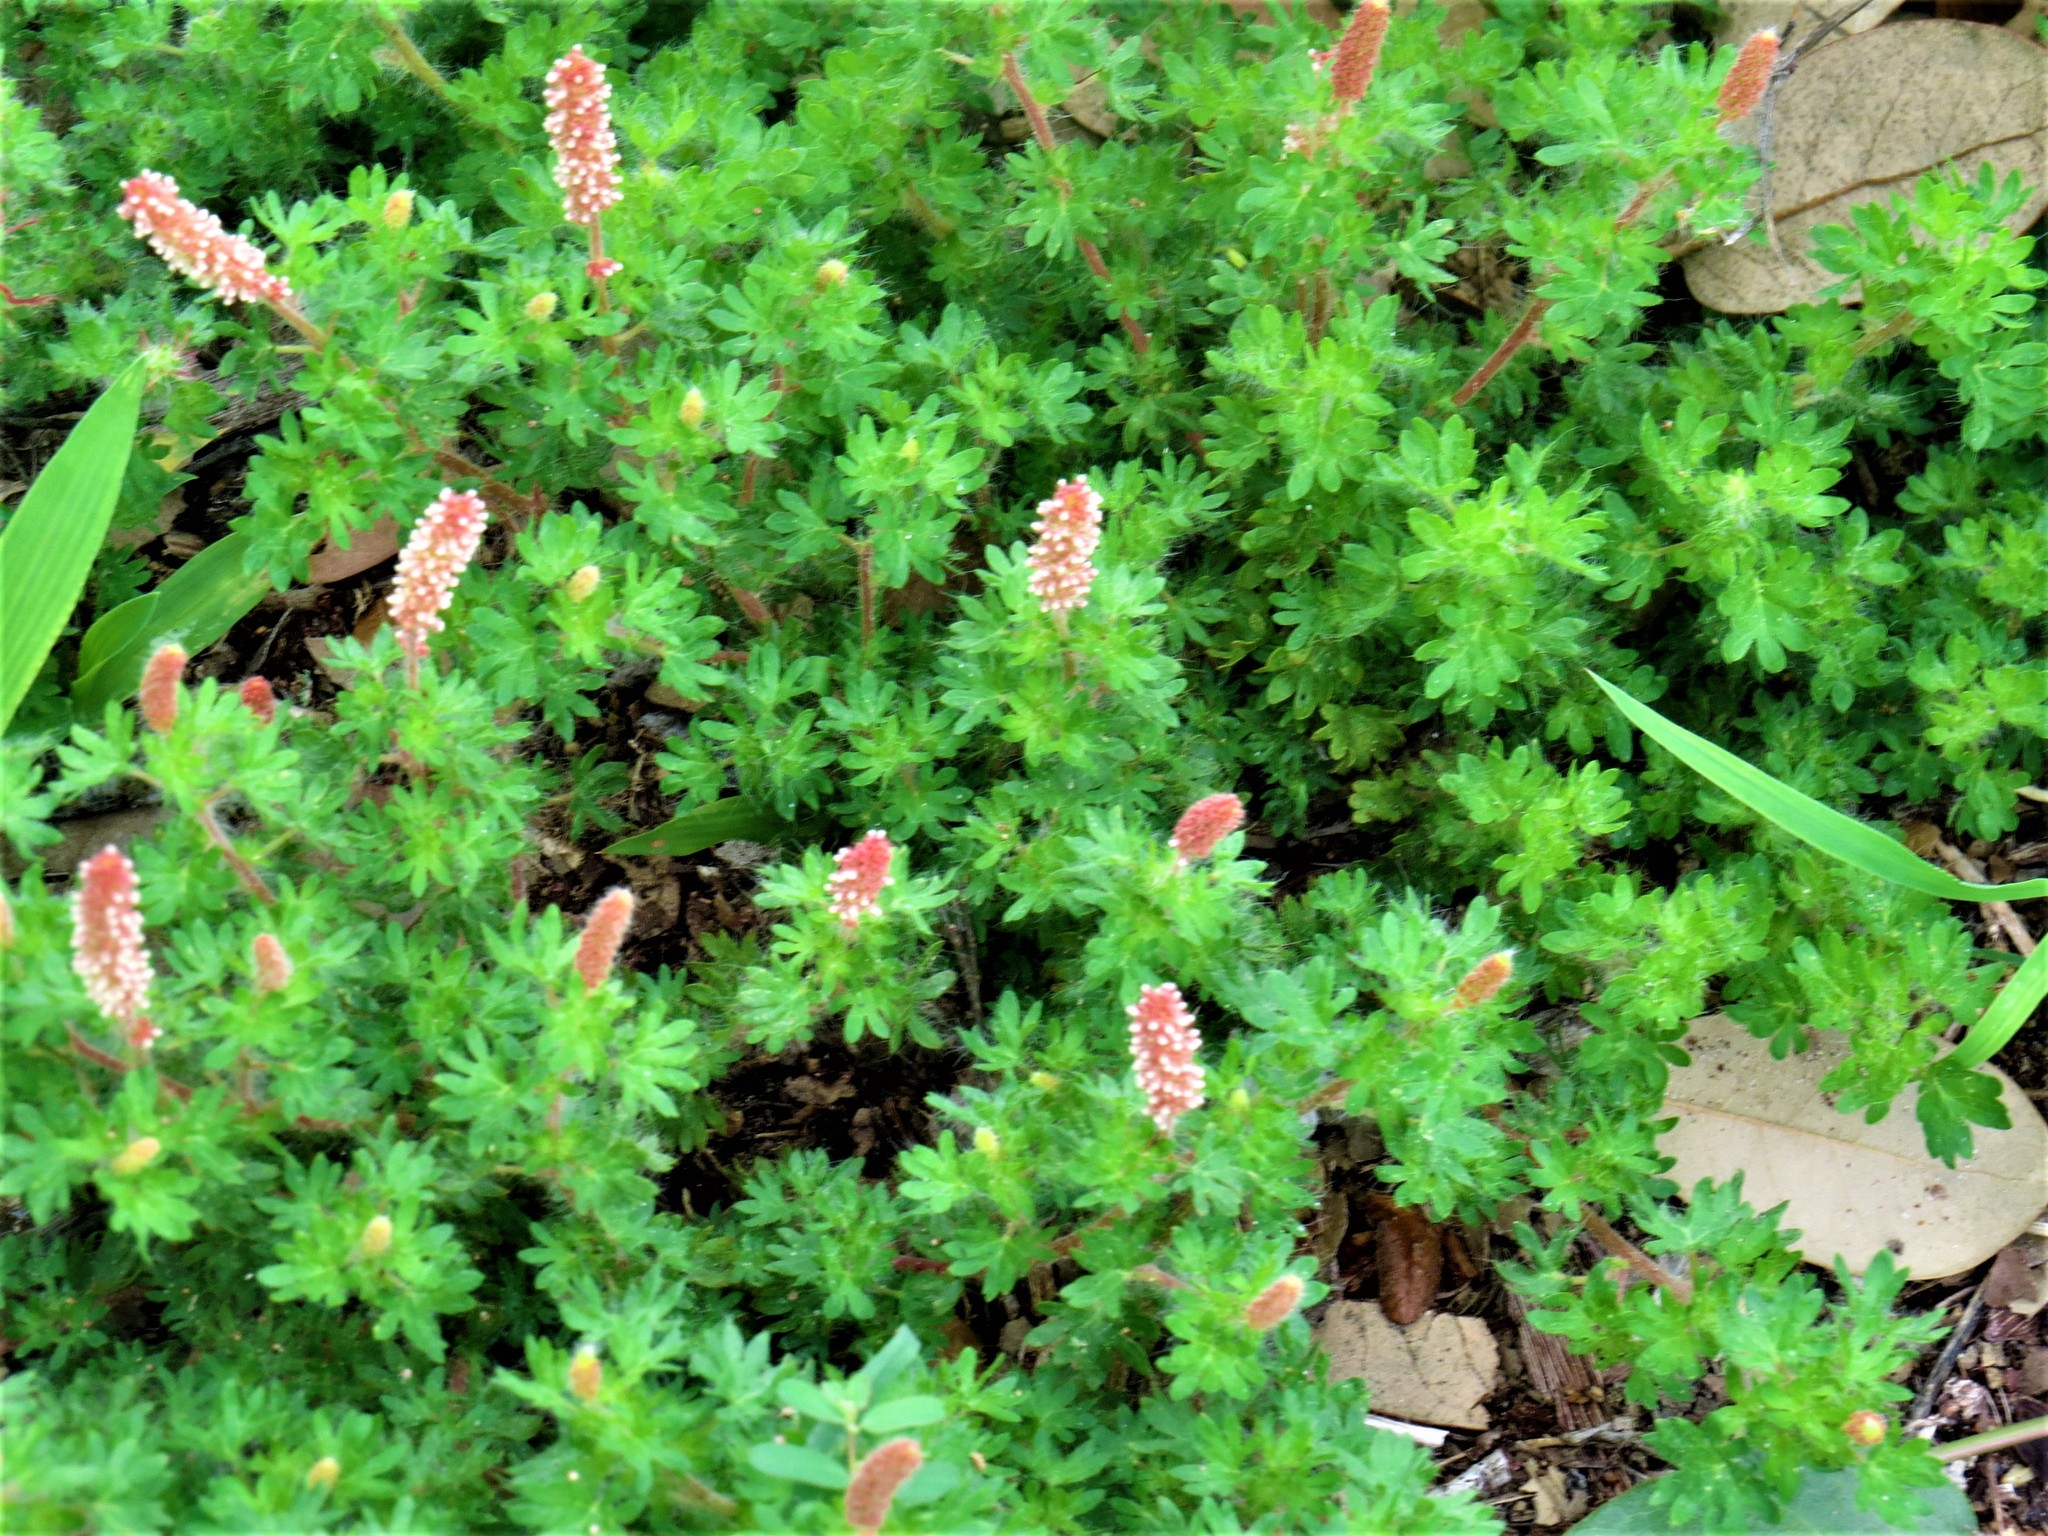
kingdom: Plantae
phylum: Tracheophyta
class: Magnoliopsida
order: Malpighiales
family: Euphorbiaceae
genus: Acalypha
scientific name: Acalypha radians
